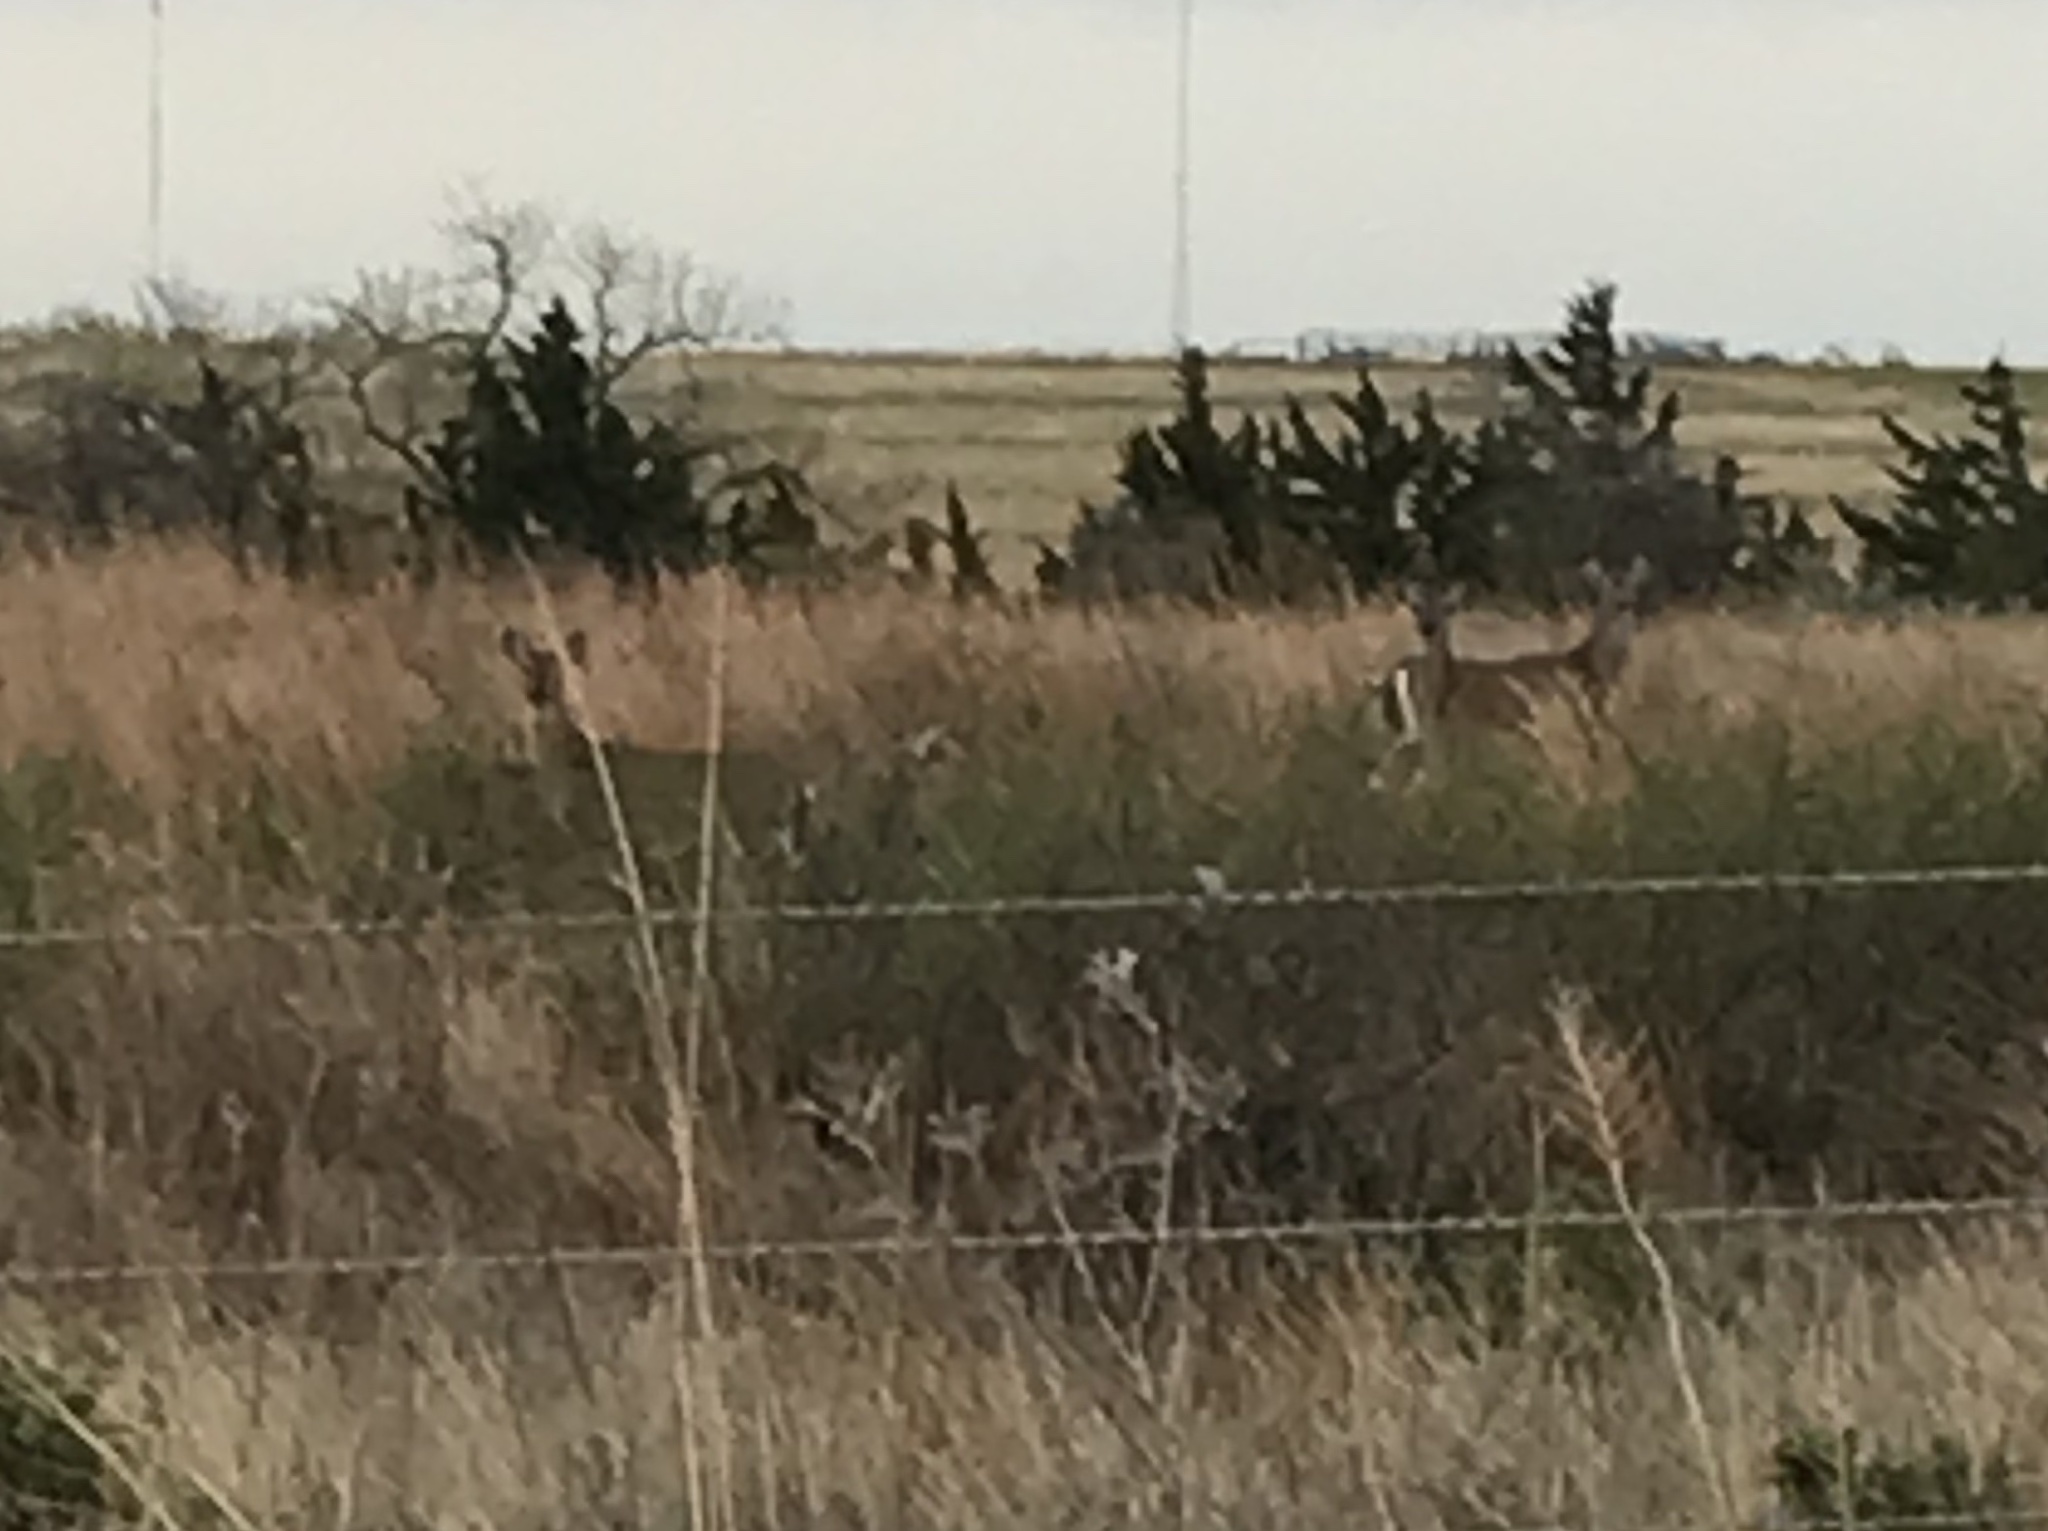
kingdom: Animalia
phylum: Chordata
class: Mammalia
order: Artiodactyla
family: Cervidae
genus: Odocoileus
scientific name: Odocoileus virginianus
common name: White-tailed deer
